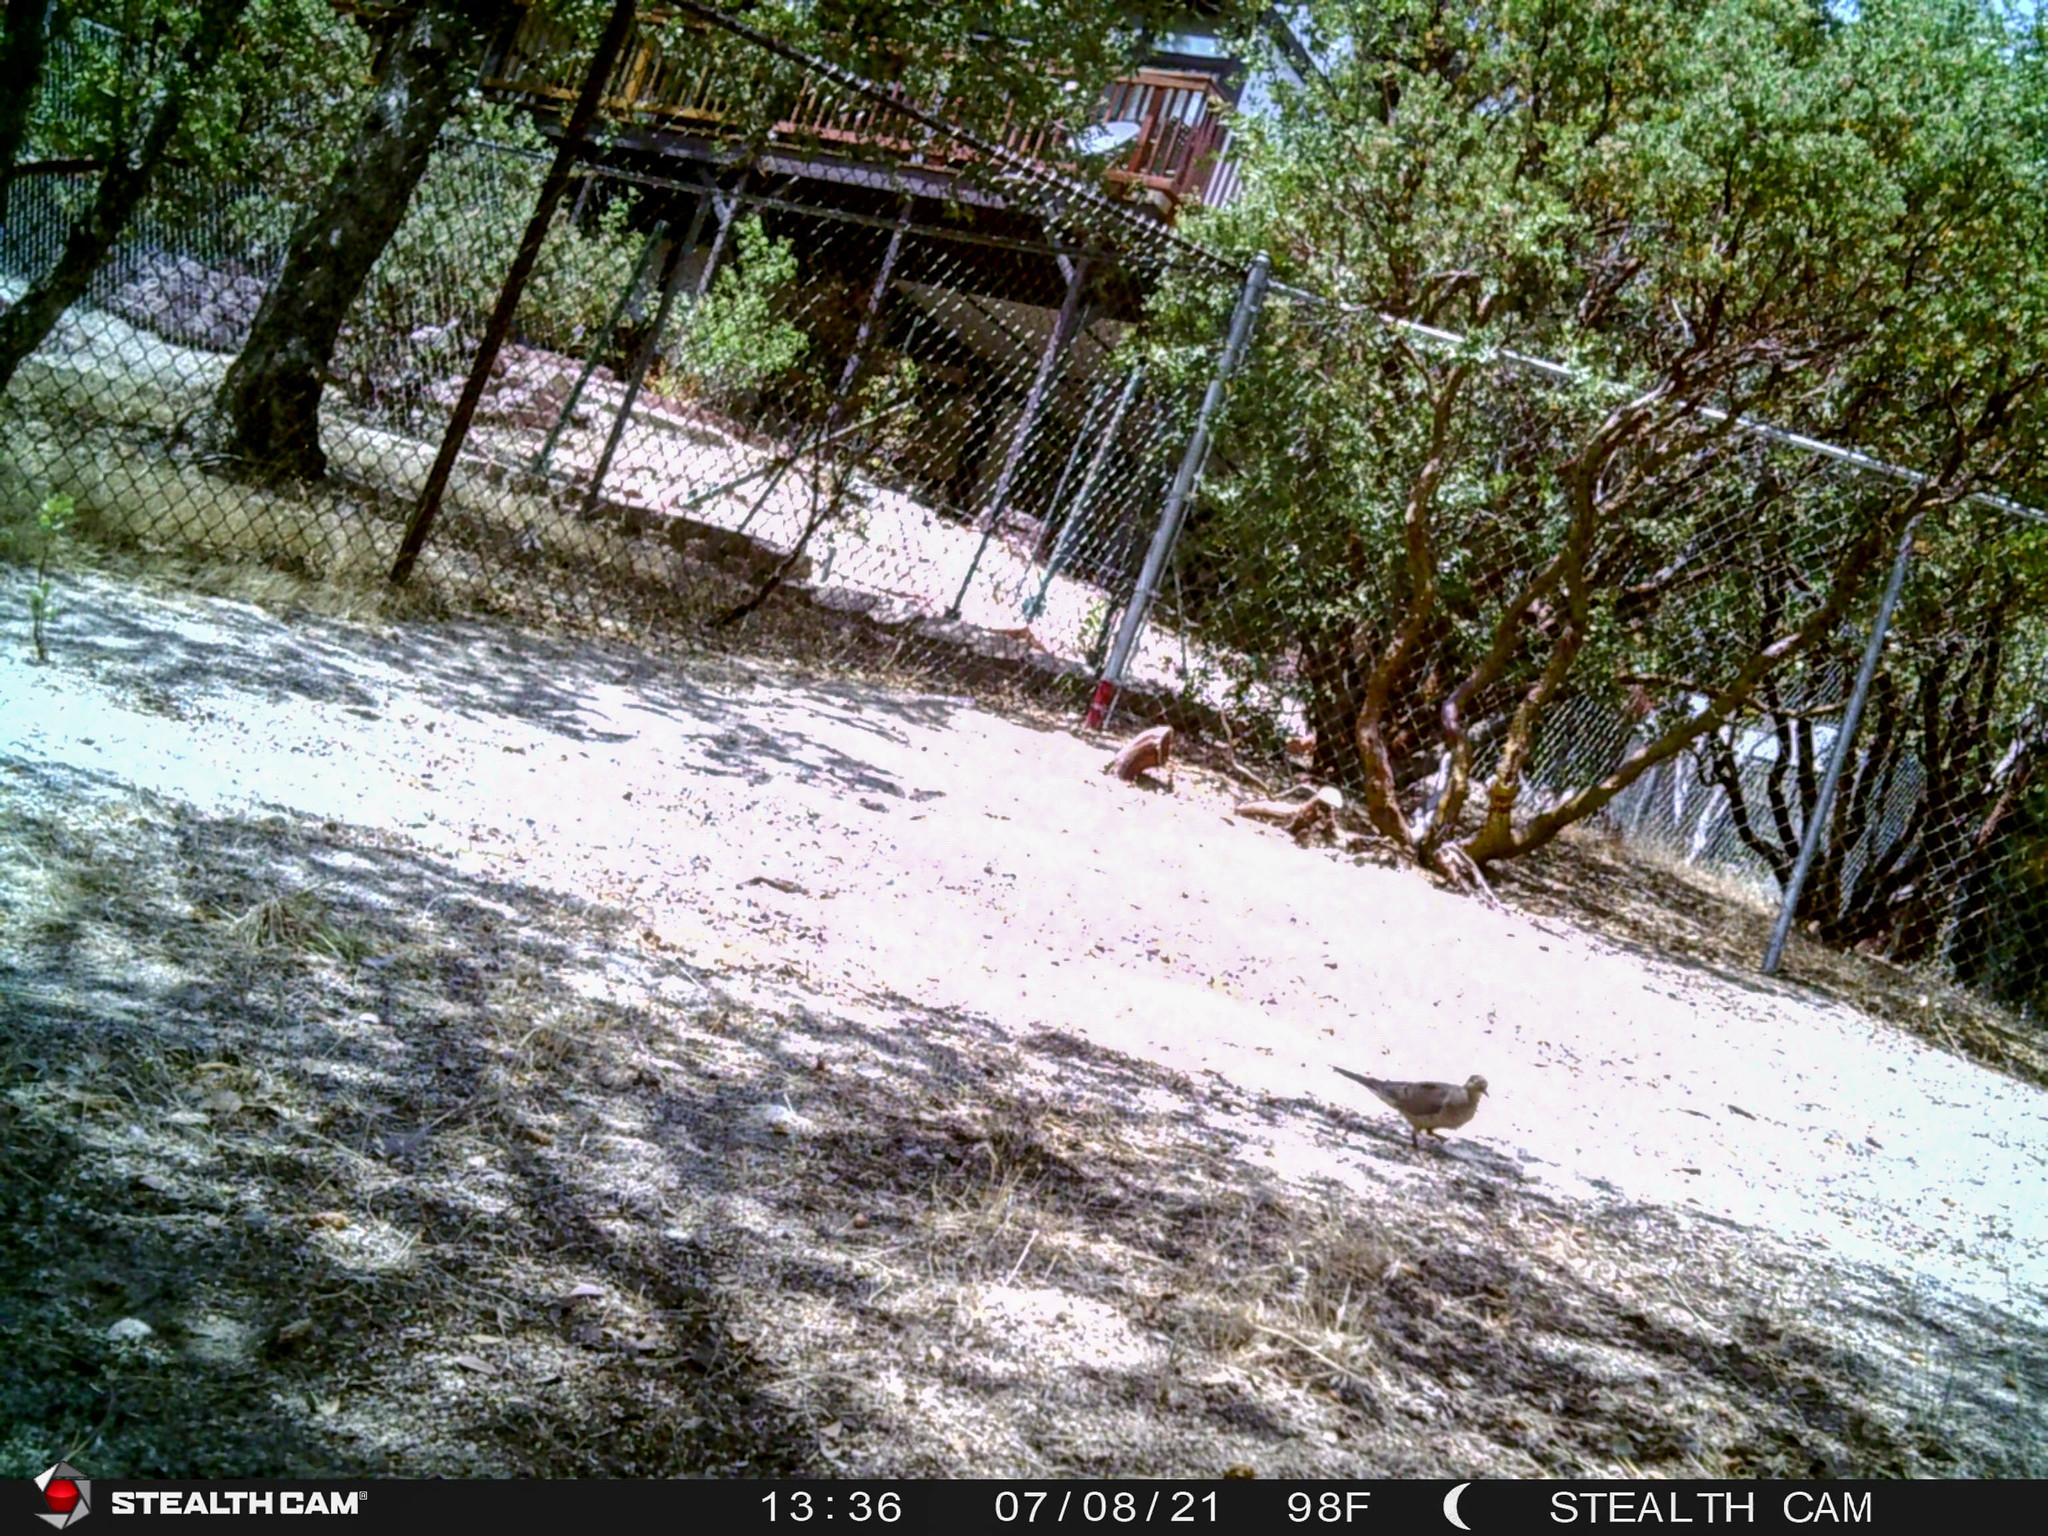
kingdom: Animalia
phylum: Chordata
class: Aves
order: Columbiformes
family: Columbidae
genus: Zenaida
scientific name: Zenaida macroura
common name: Mourning dove
